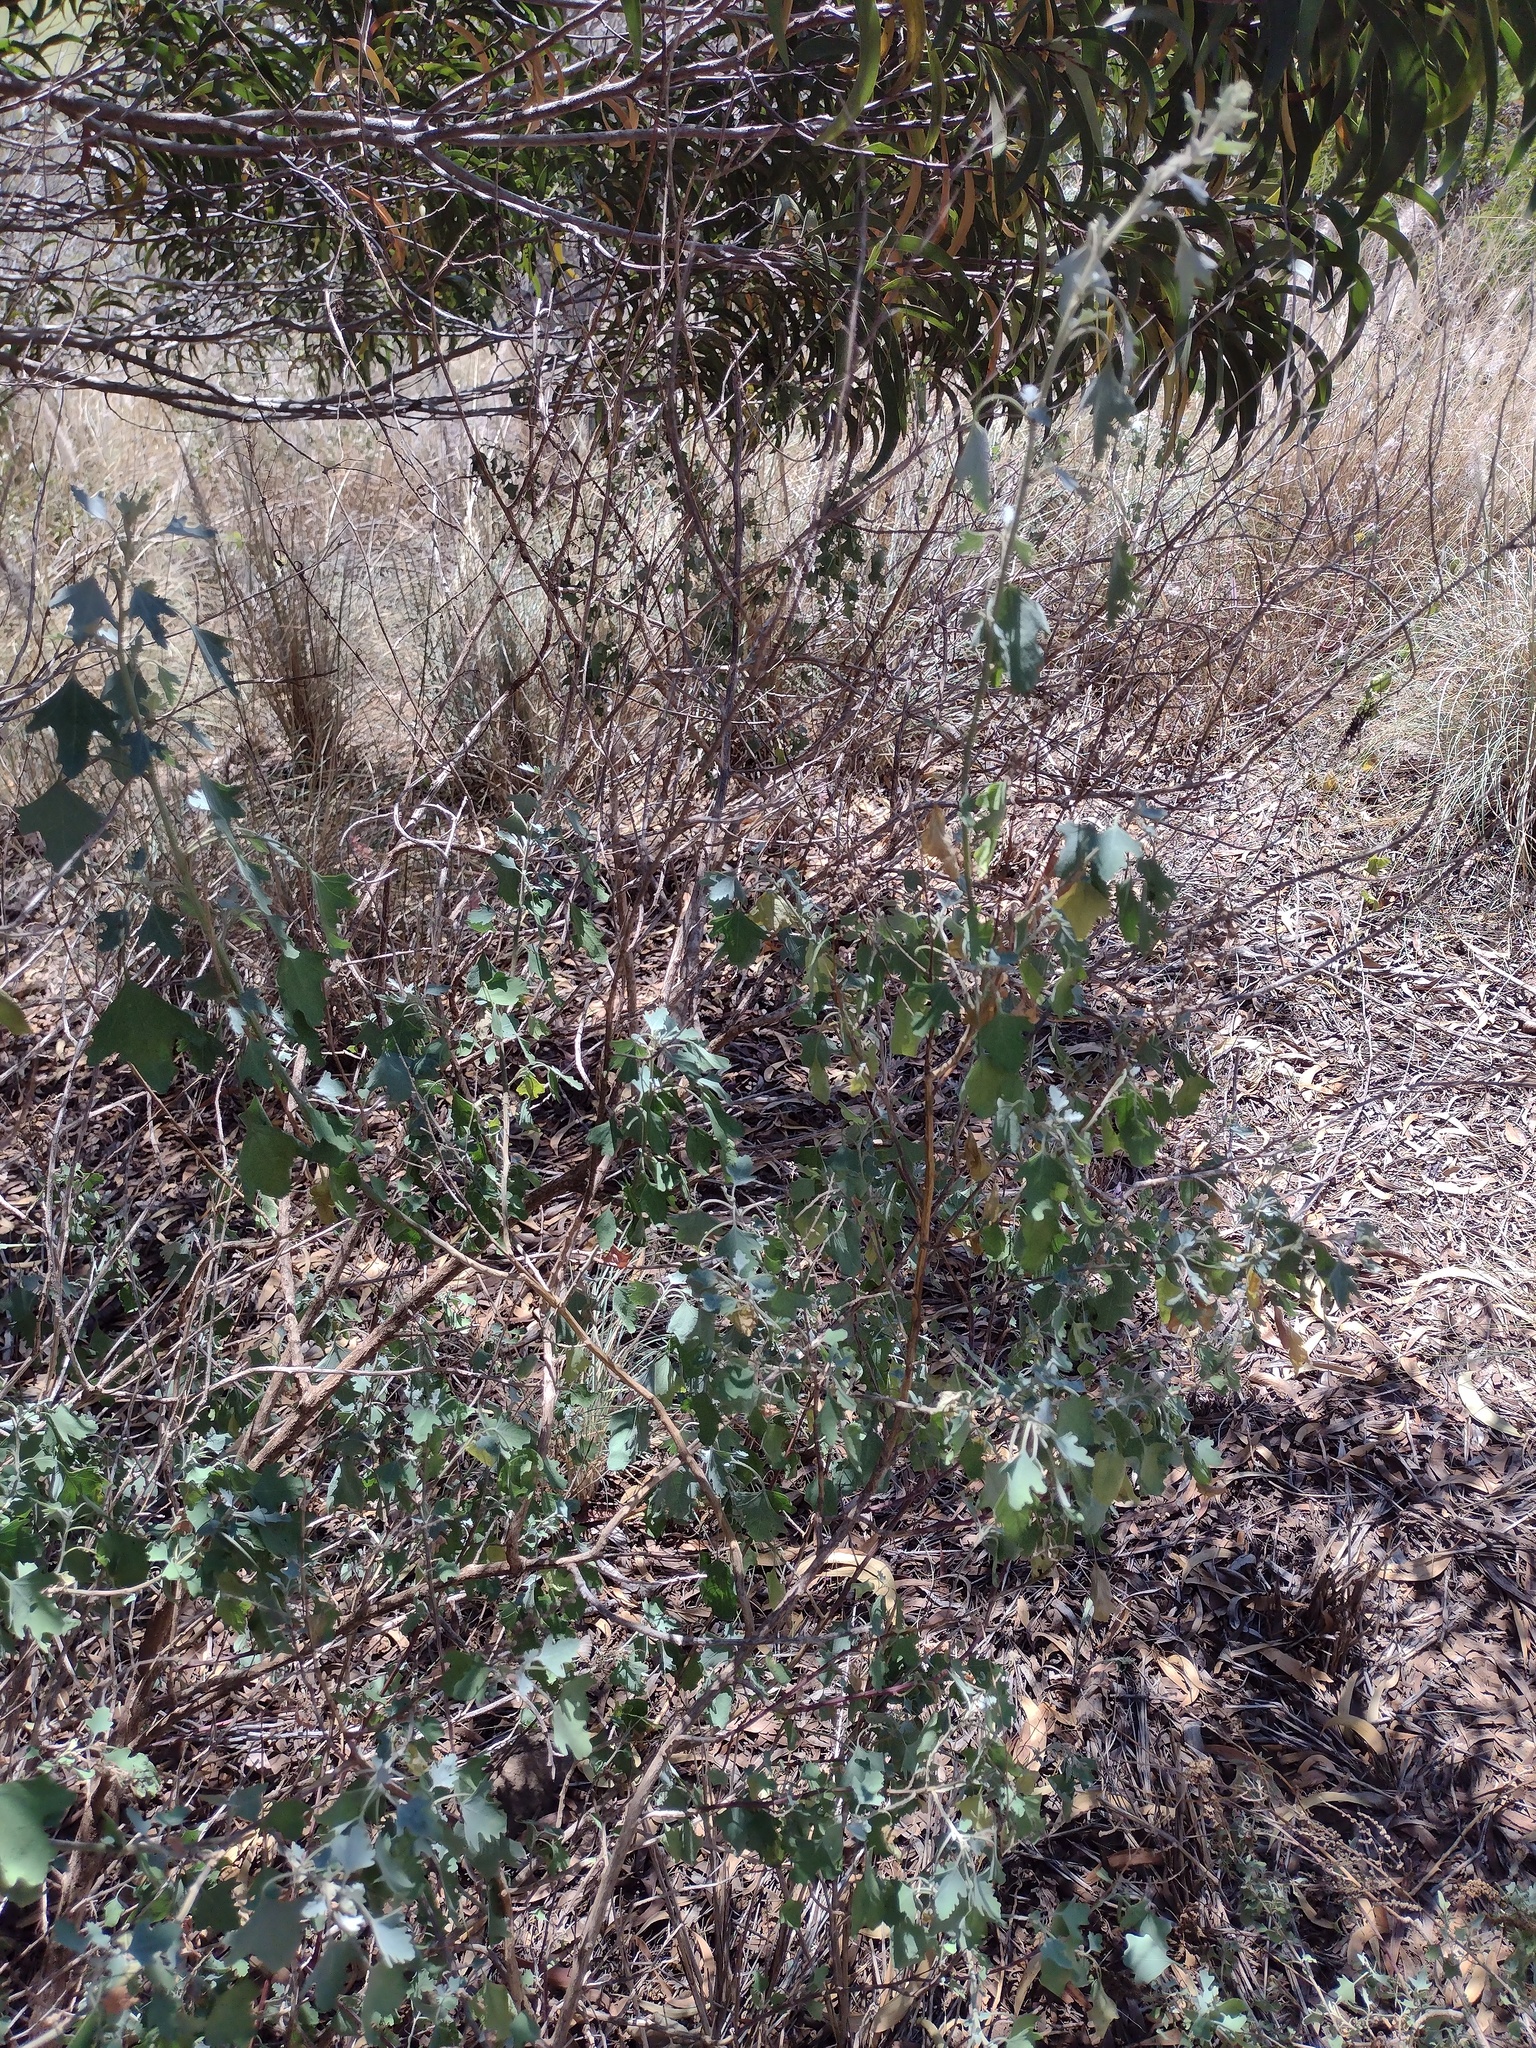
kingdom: Plantae
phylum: Tracheophyta
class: Magnoliopsida
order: Caryophyllales
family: Amaranthaceae
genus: Chenopodium
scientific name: Chenopodium oahuense
